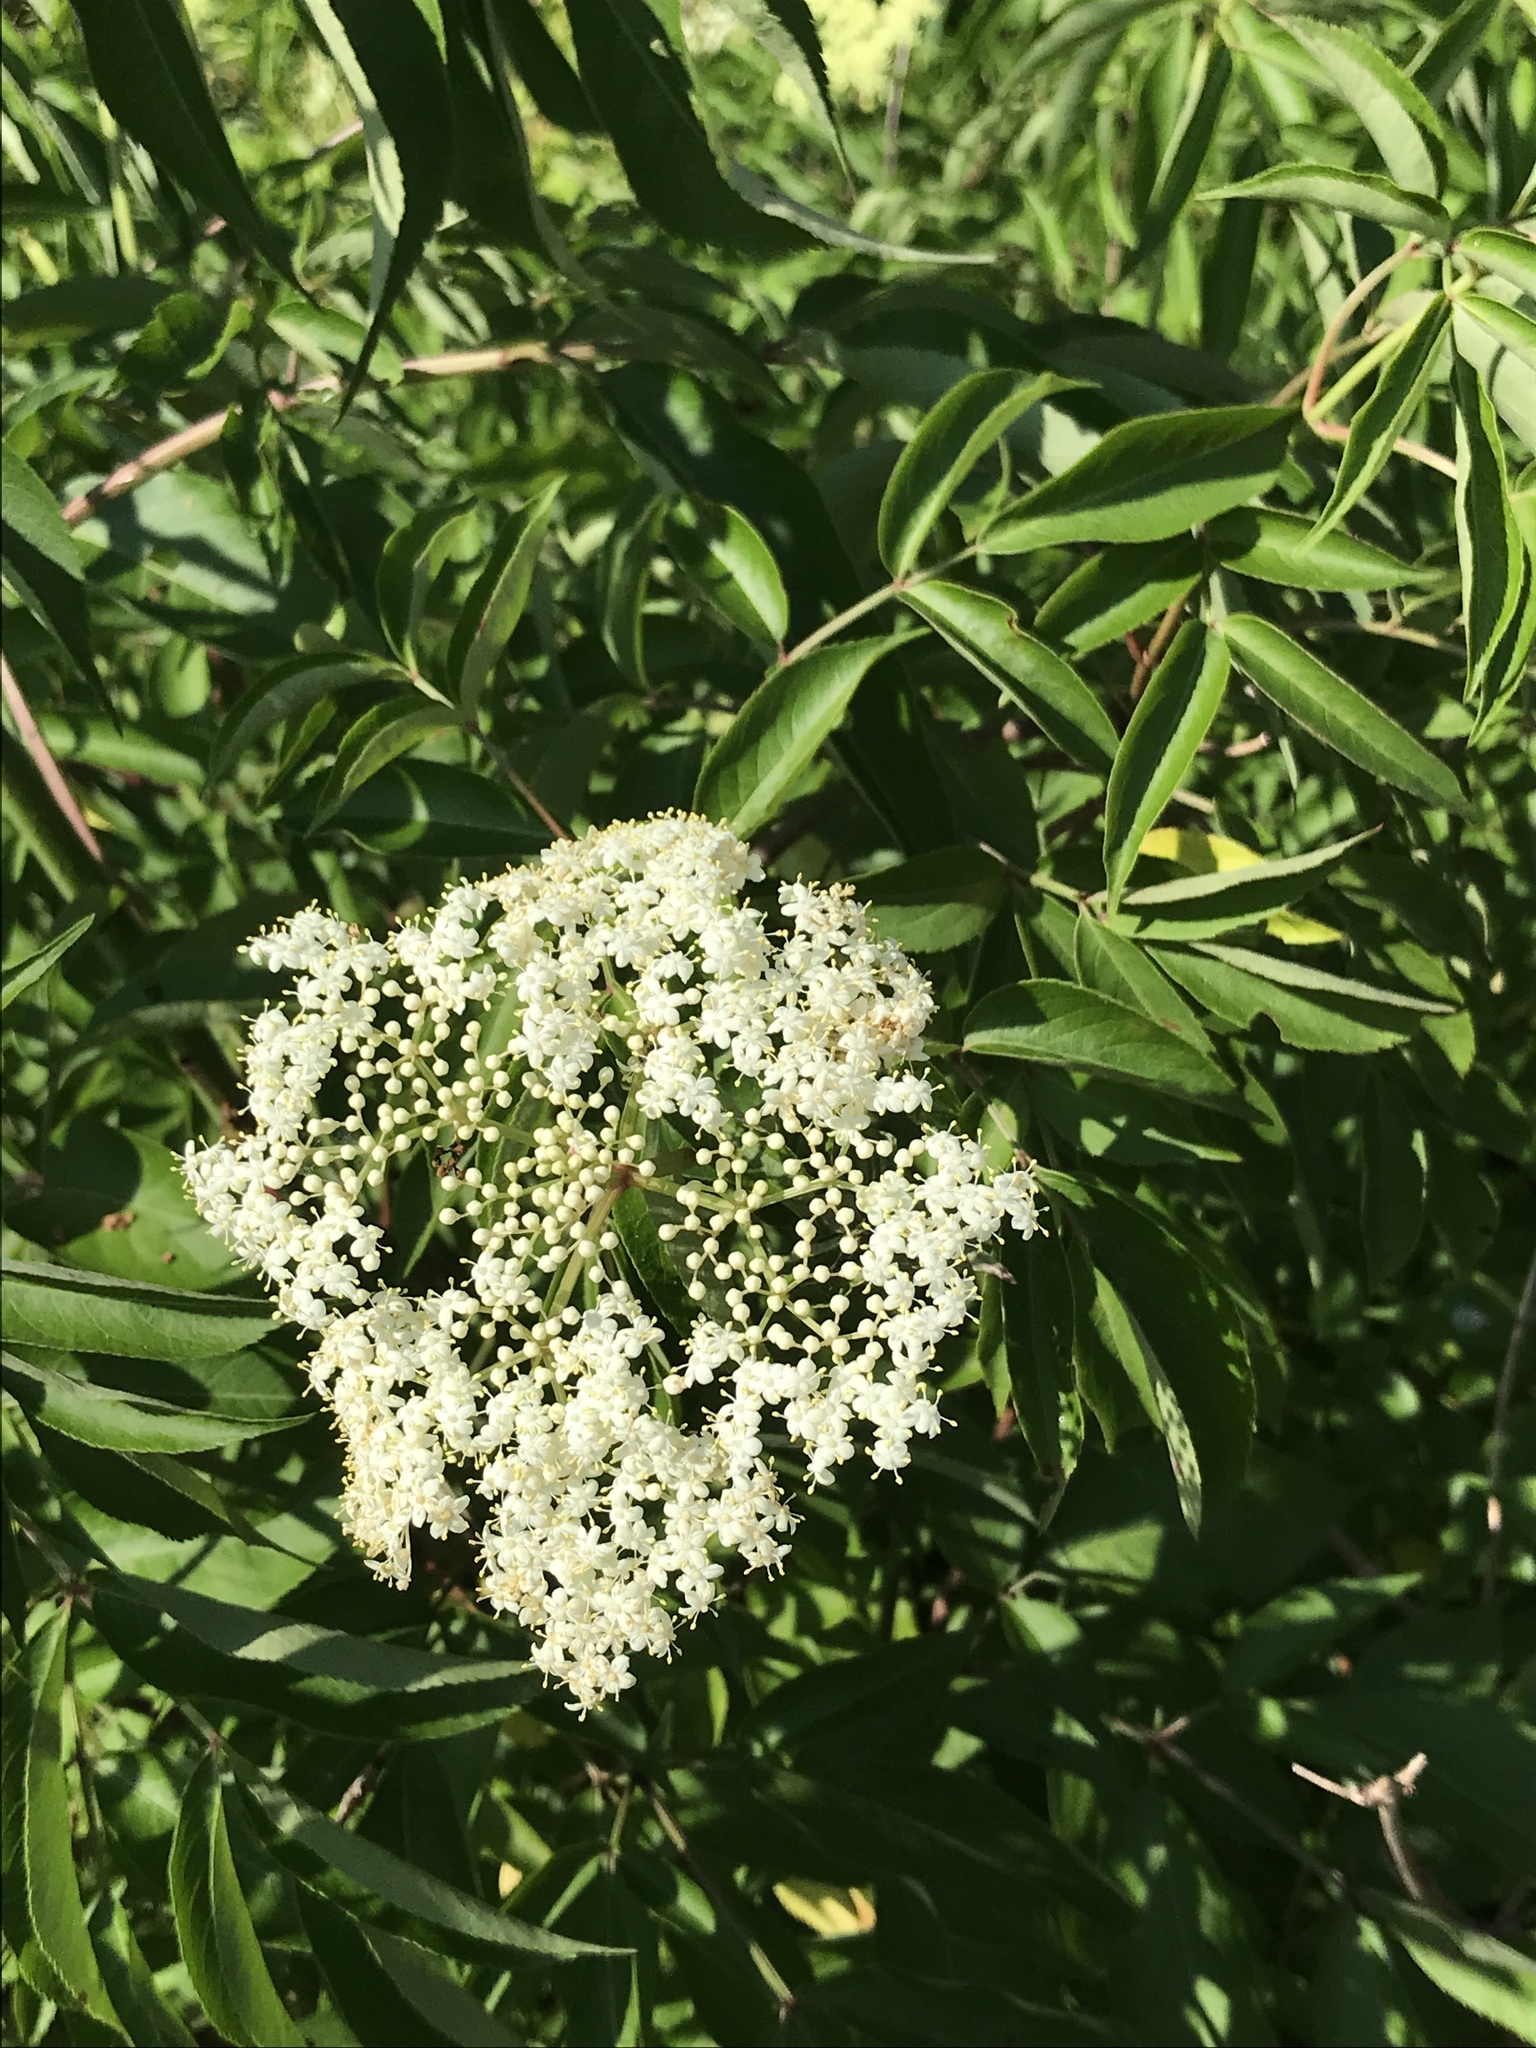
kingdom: Plantae
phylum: Tracheophyta
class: Magnoliopsida
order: Dipsacales
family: Viburnaceae
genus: Sambucus
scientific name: Sambucus canadensis
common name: American elder
